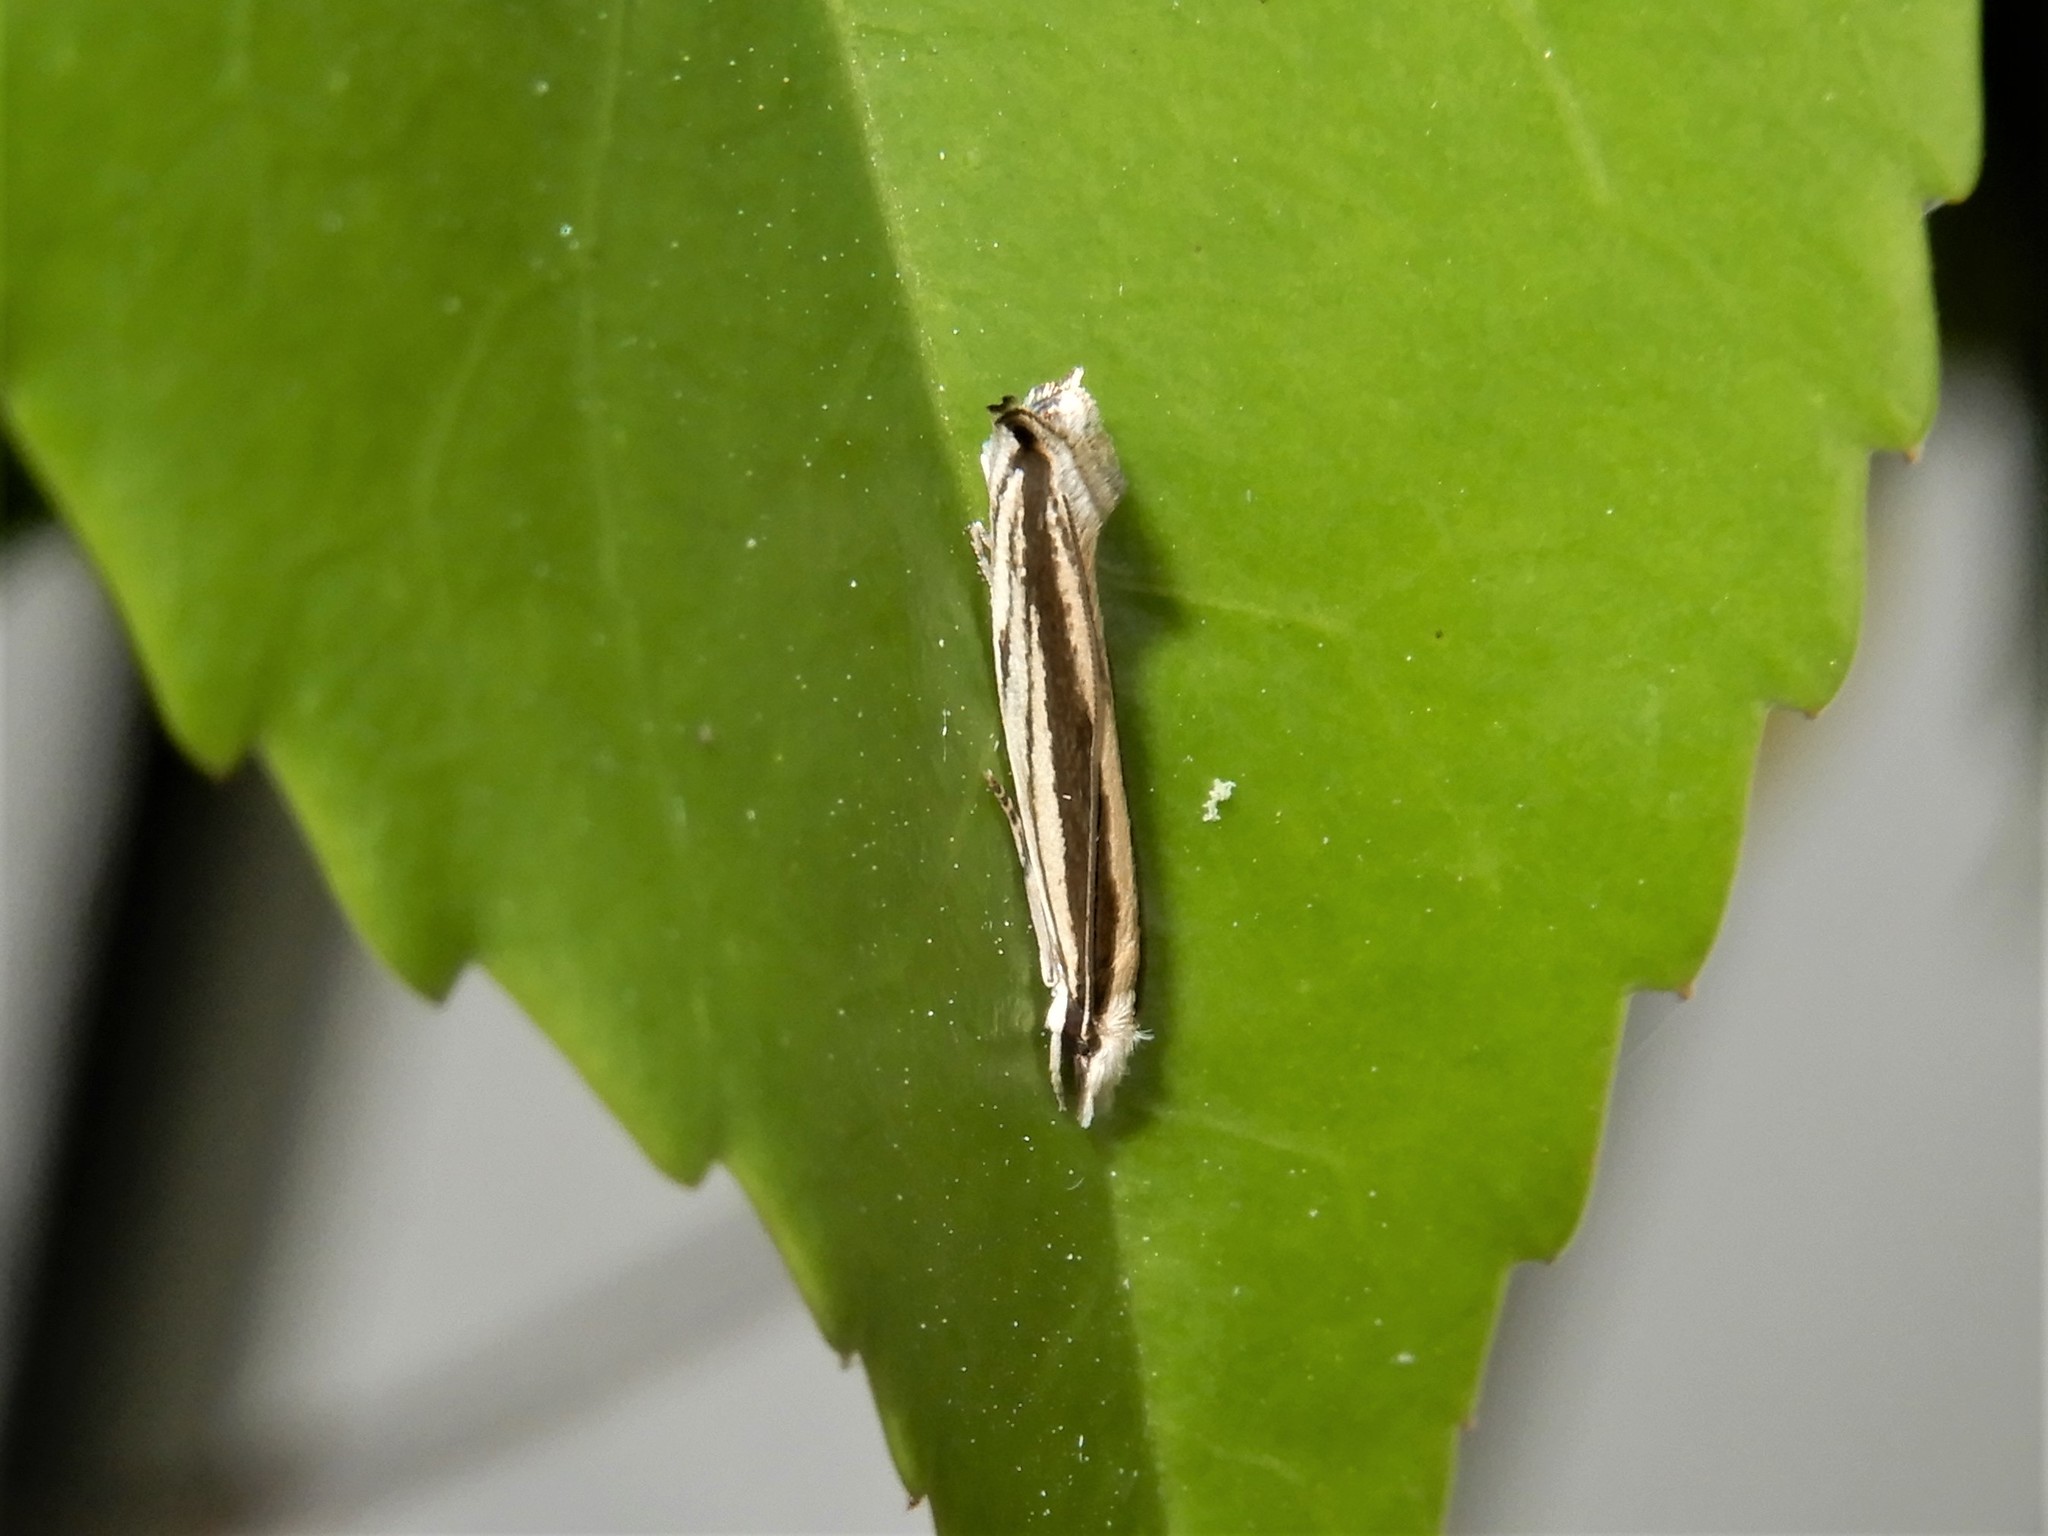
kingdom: Animalia
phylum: Arthropoda
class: Insecta
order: Lepidoptera
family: Tineidae
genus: Erechthias
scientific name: Erechthias stilbella
